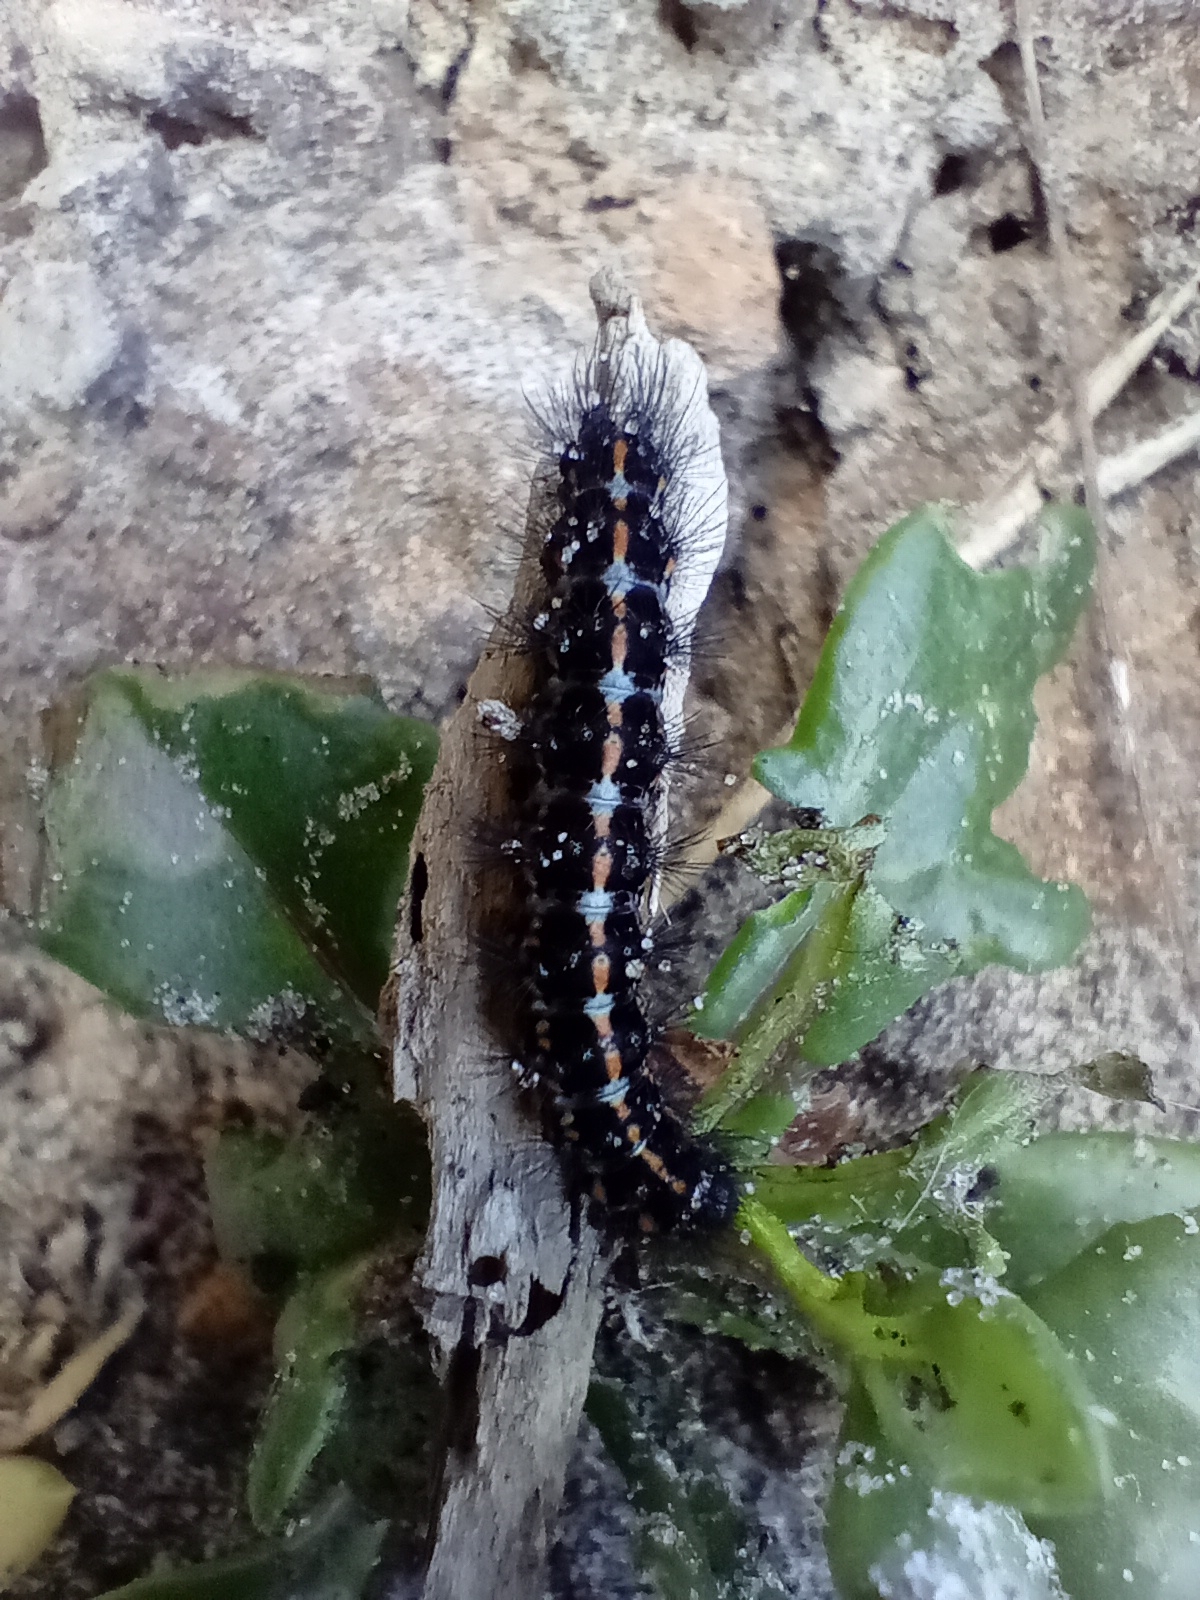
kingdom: Animalia
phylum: Arthropoda
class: Insecta
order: Lepidoptera
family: Erebidae
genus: Nyctemera
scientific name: Nyctemera annulatum
